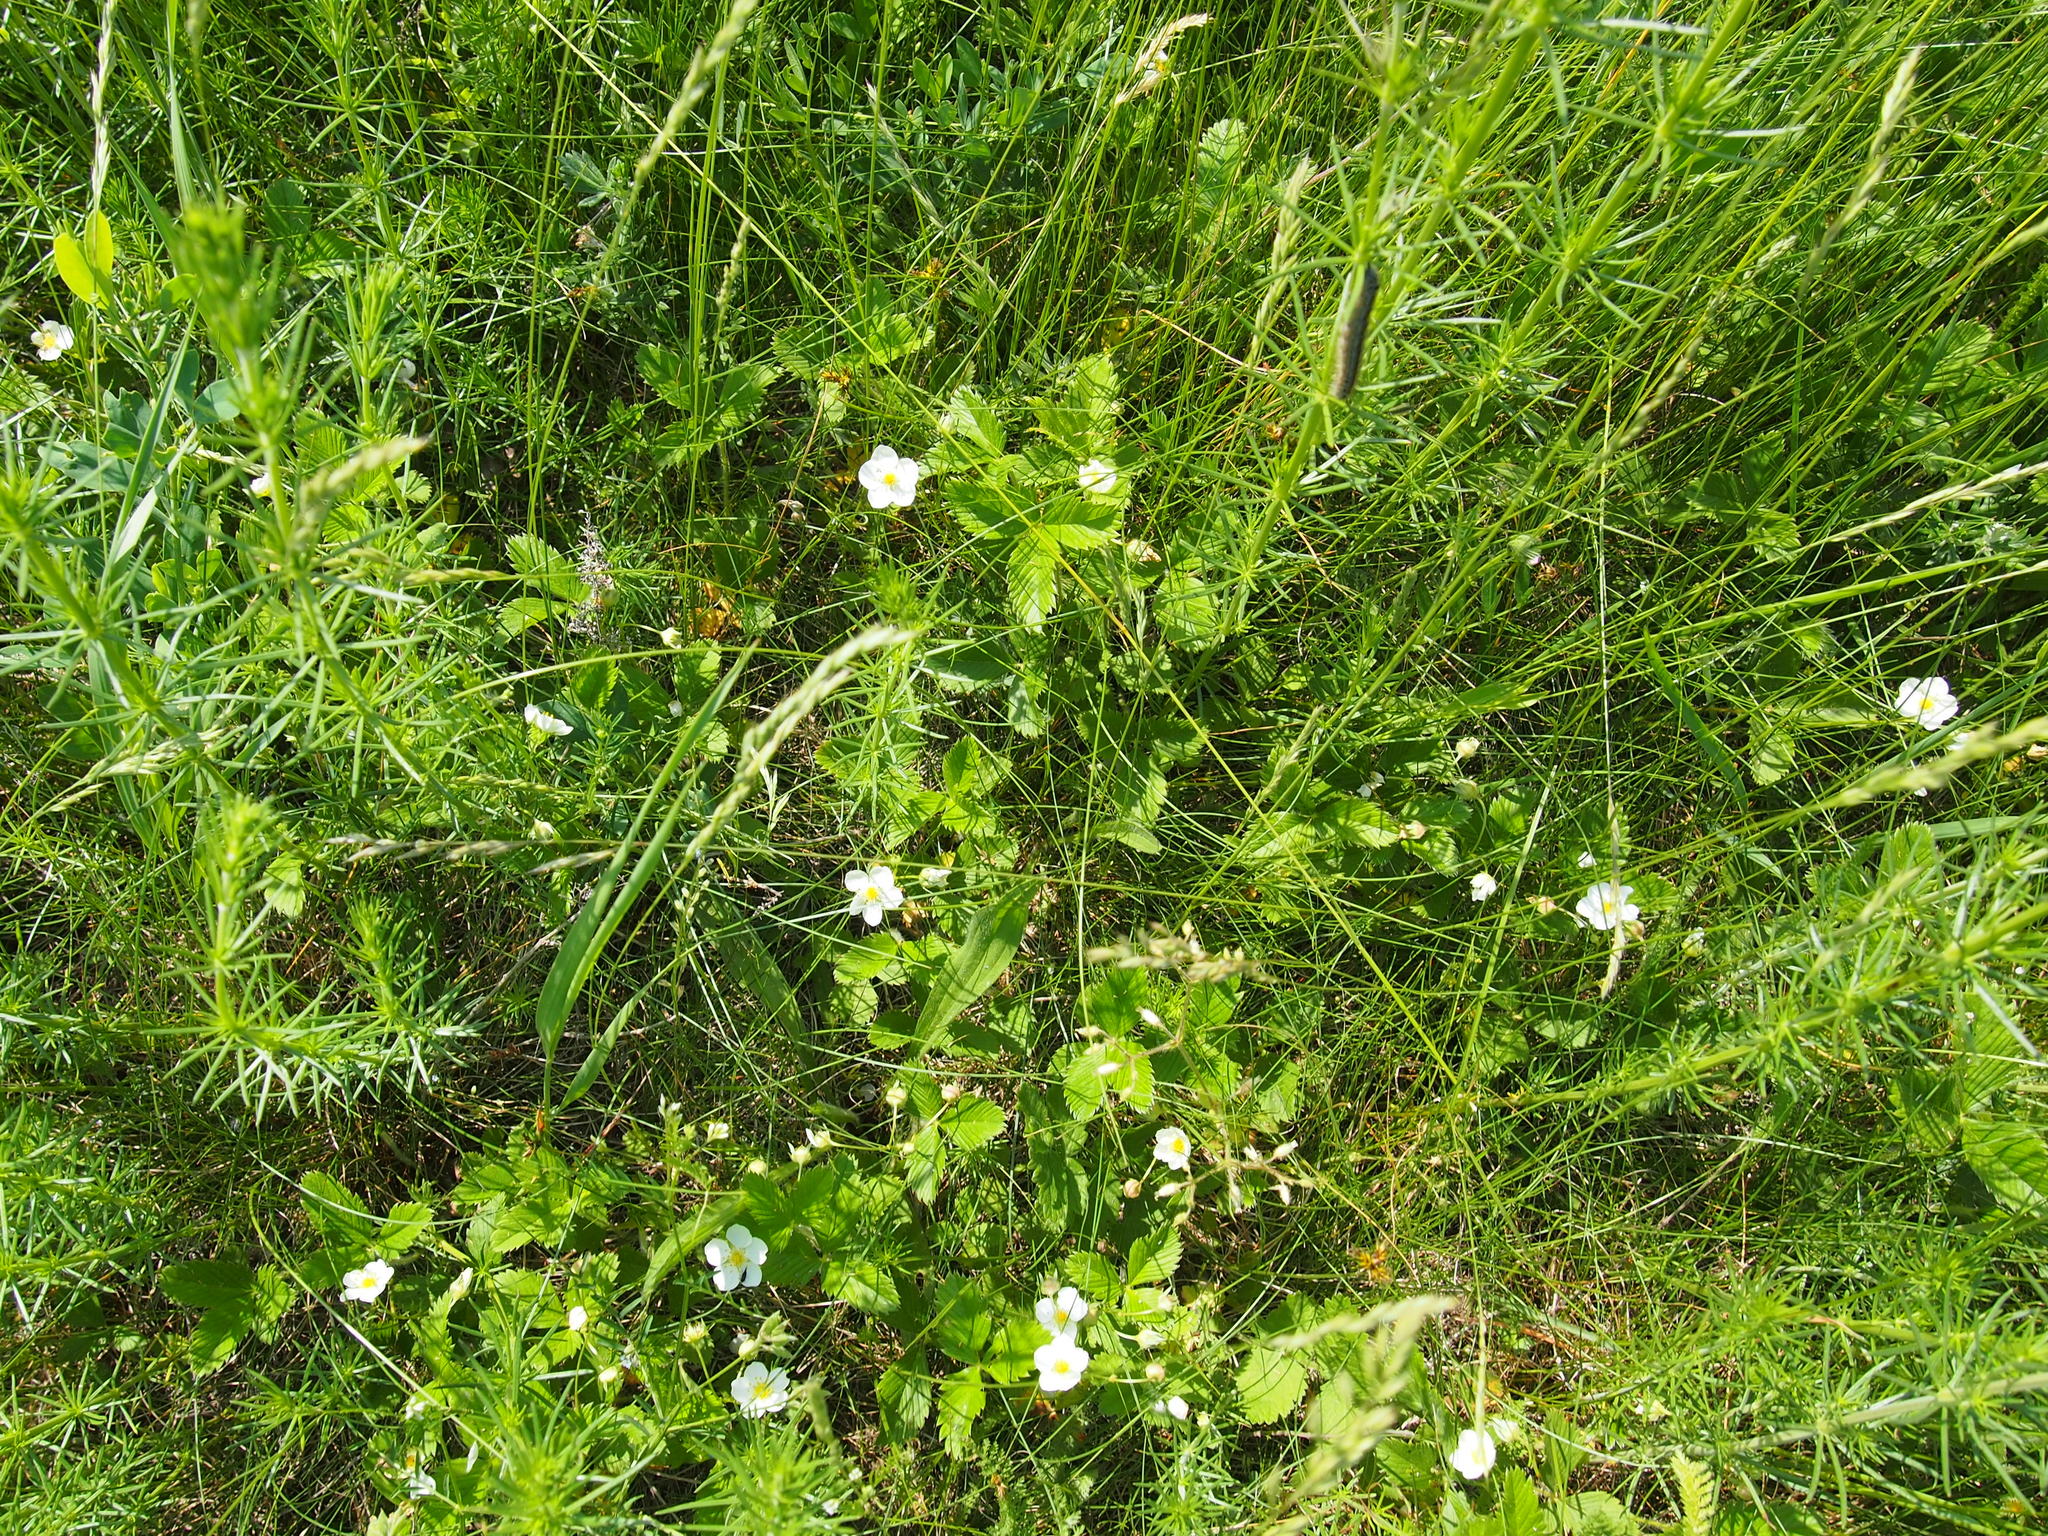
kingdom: Plantae
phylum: Tracheophyta
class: Magnoliopsida
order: Rosales
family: Rosaceae
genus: Fragaria
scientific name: Fragaria viridis
